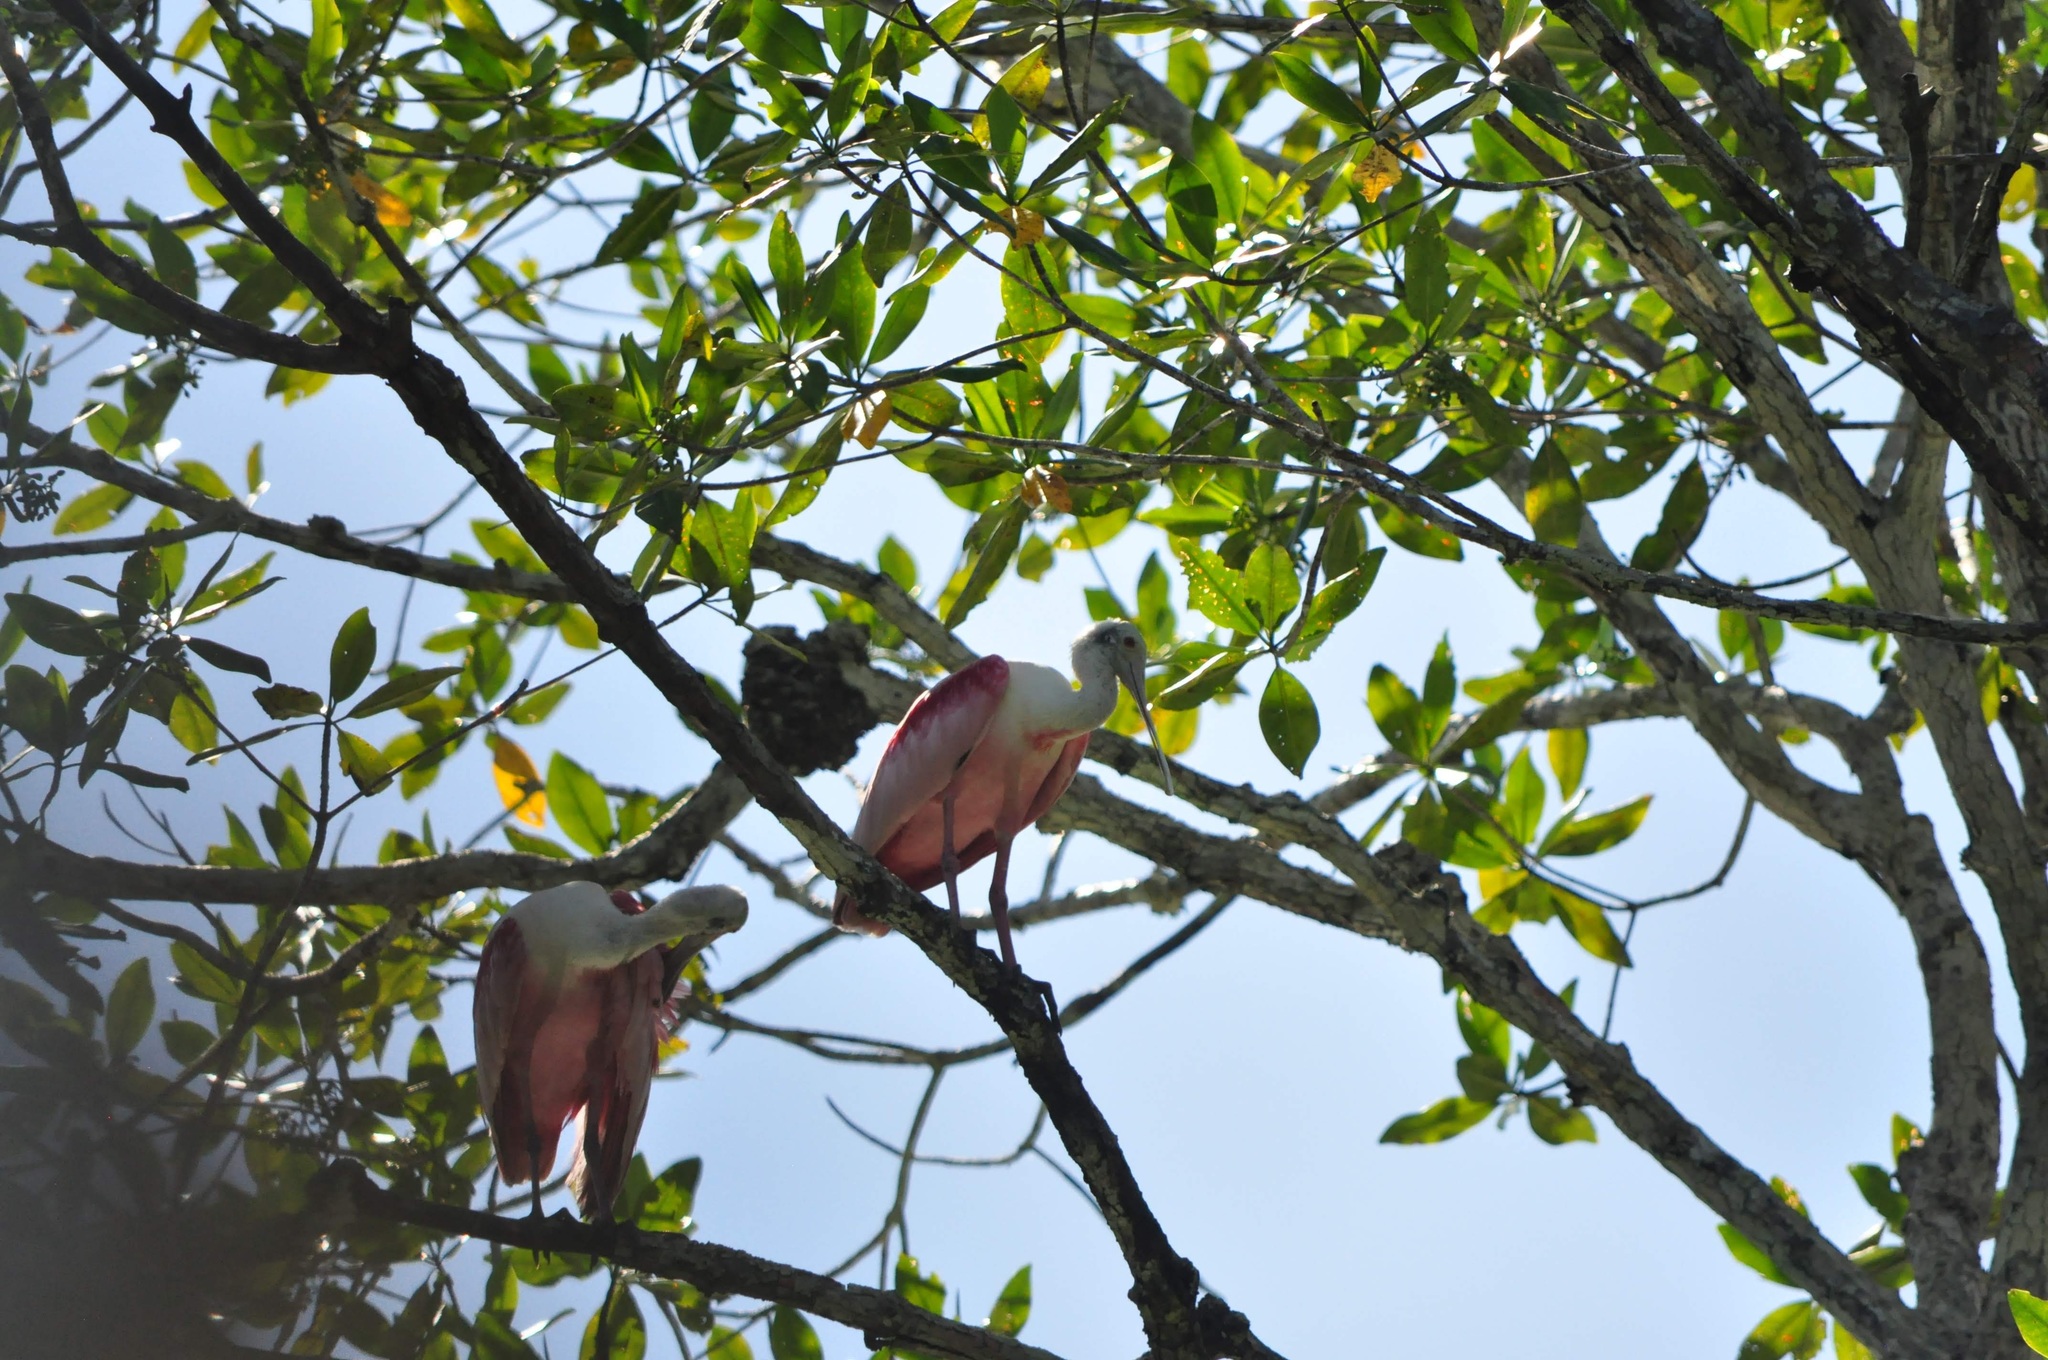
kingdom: Animalia
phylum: Chordata
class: Aves
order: Pelecaniformes
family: Threskiornithidae
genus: Platalea
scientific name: Platalea ajaja
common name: Roseate spoonbill
